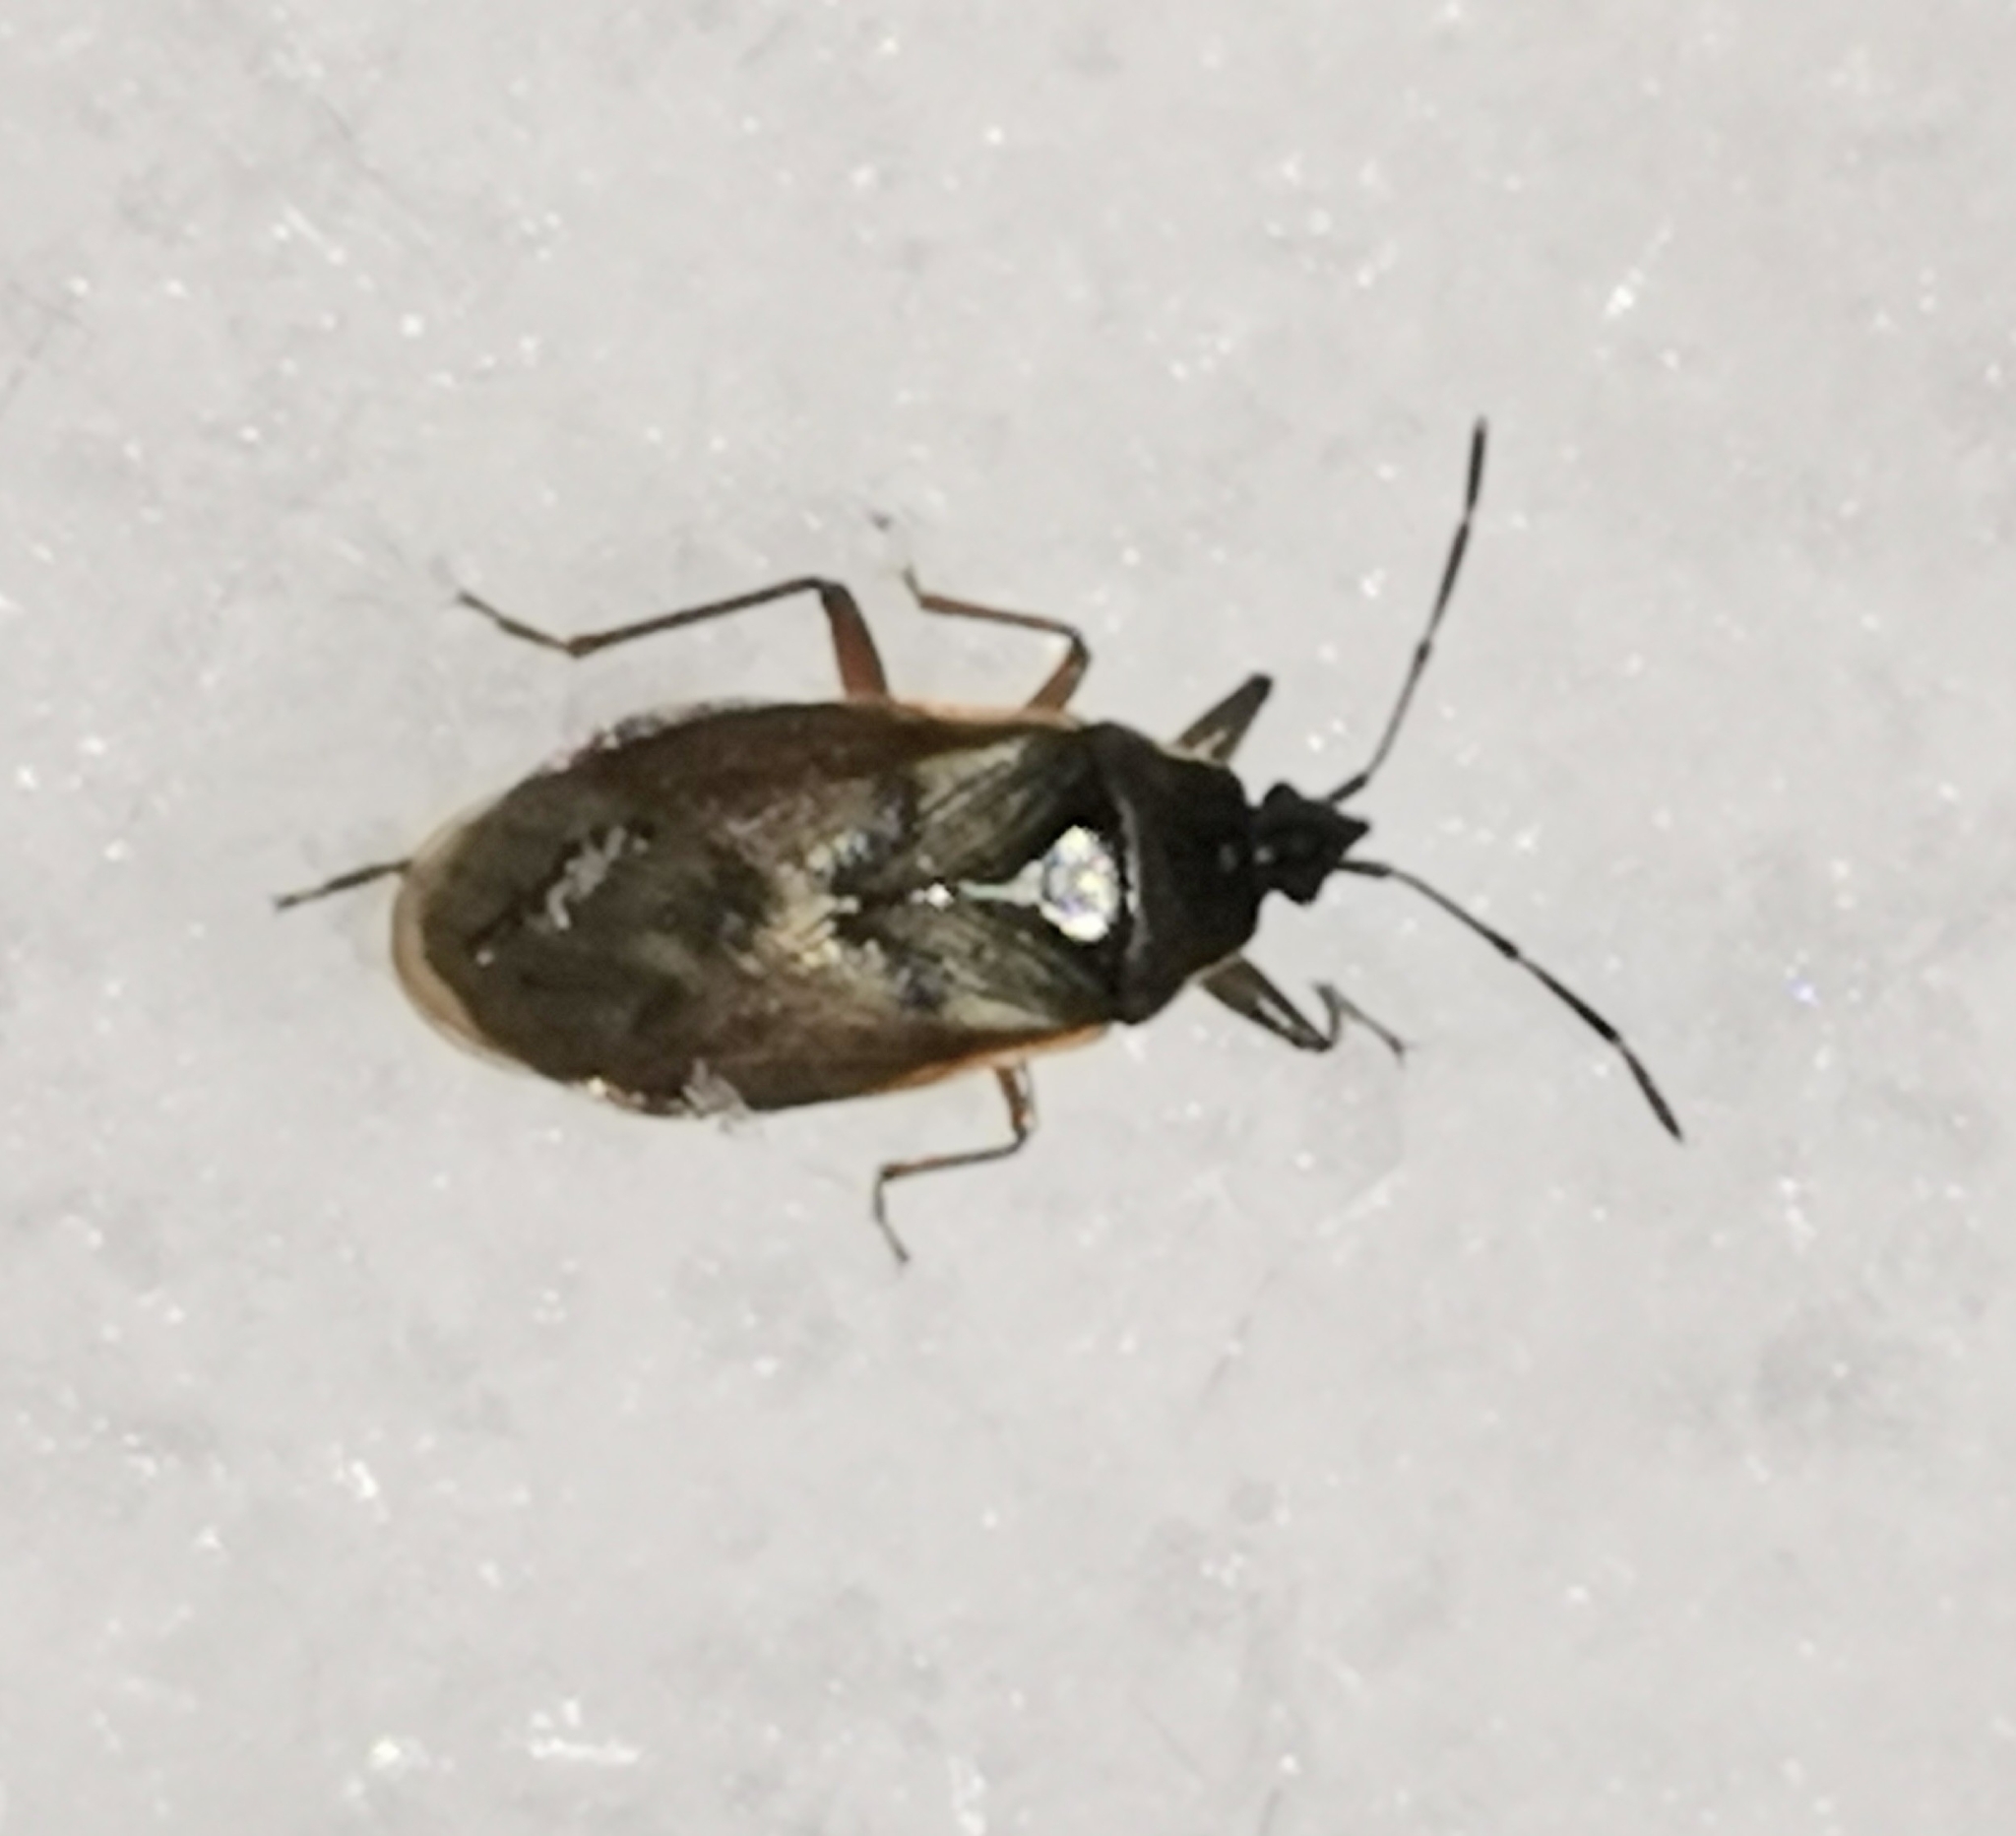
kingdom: Animalia
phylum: Arthropoda
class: Insecta
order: Hemiptera
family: Rhyparochromidae
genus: Gastrodes
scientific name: Gastrodes abietum
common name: Spruce cone bug
